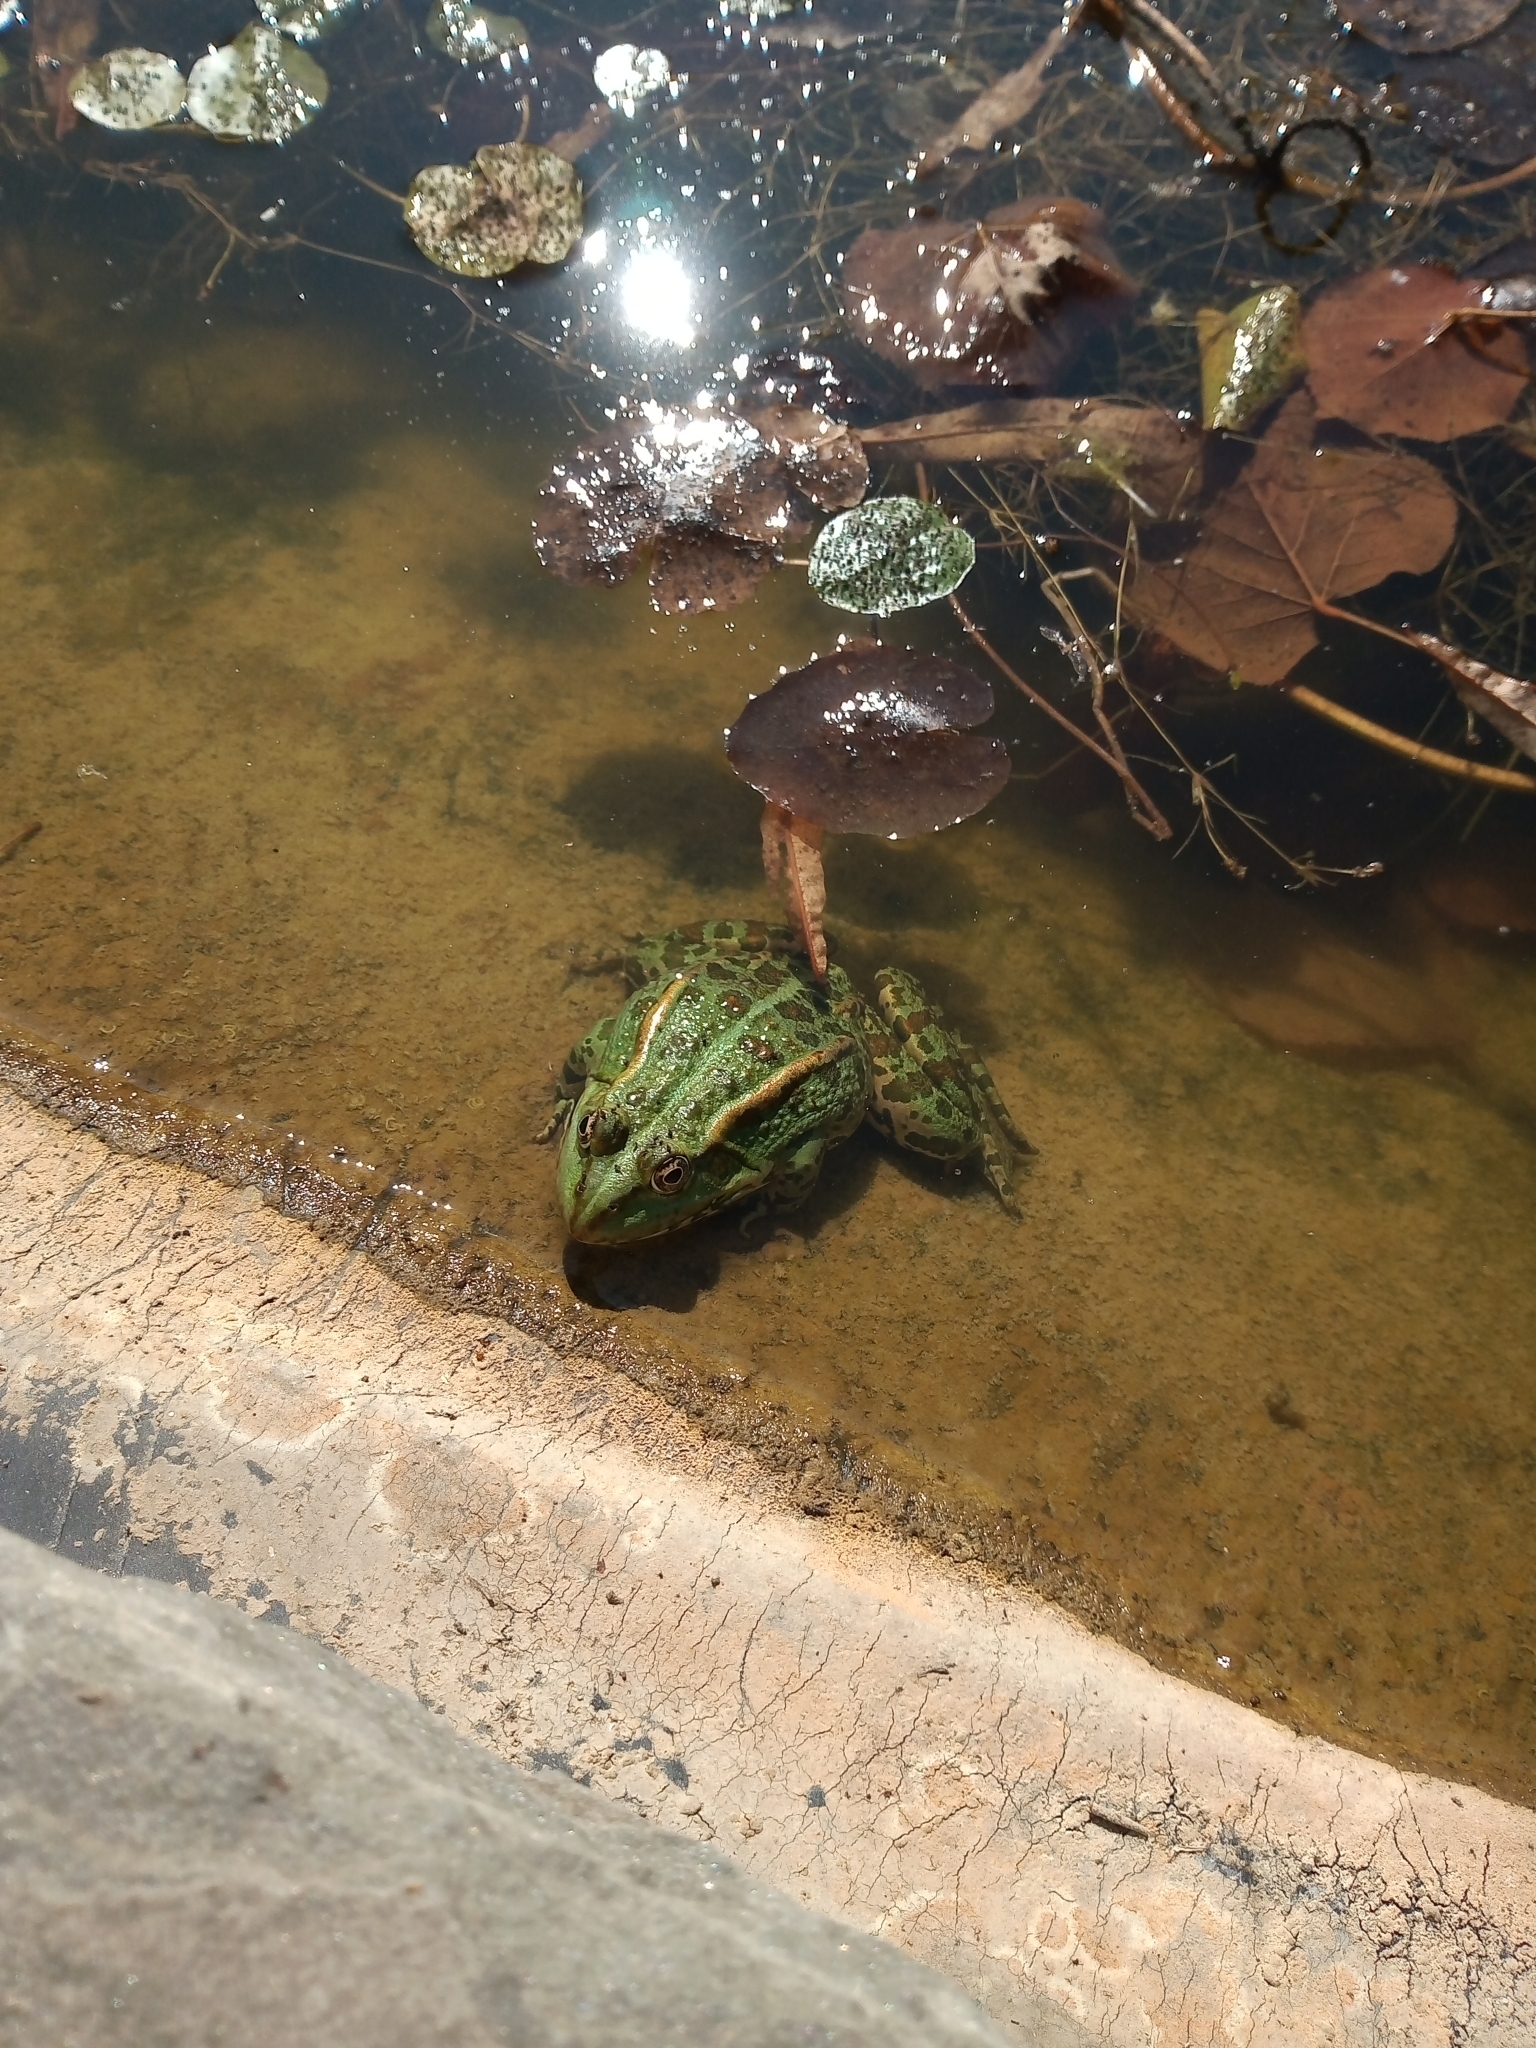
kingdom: Animalia
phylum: Chordata
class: Amphibia
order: Anura
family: Ranidae
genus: Pelophylax
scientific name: Pelophylax
